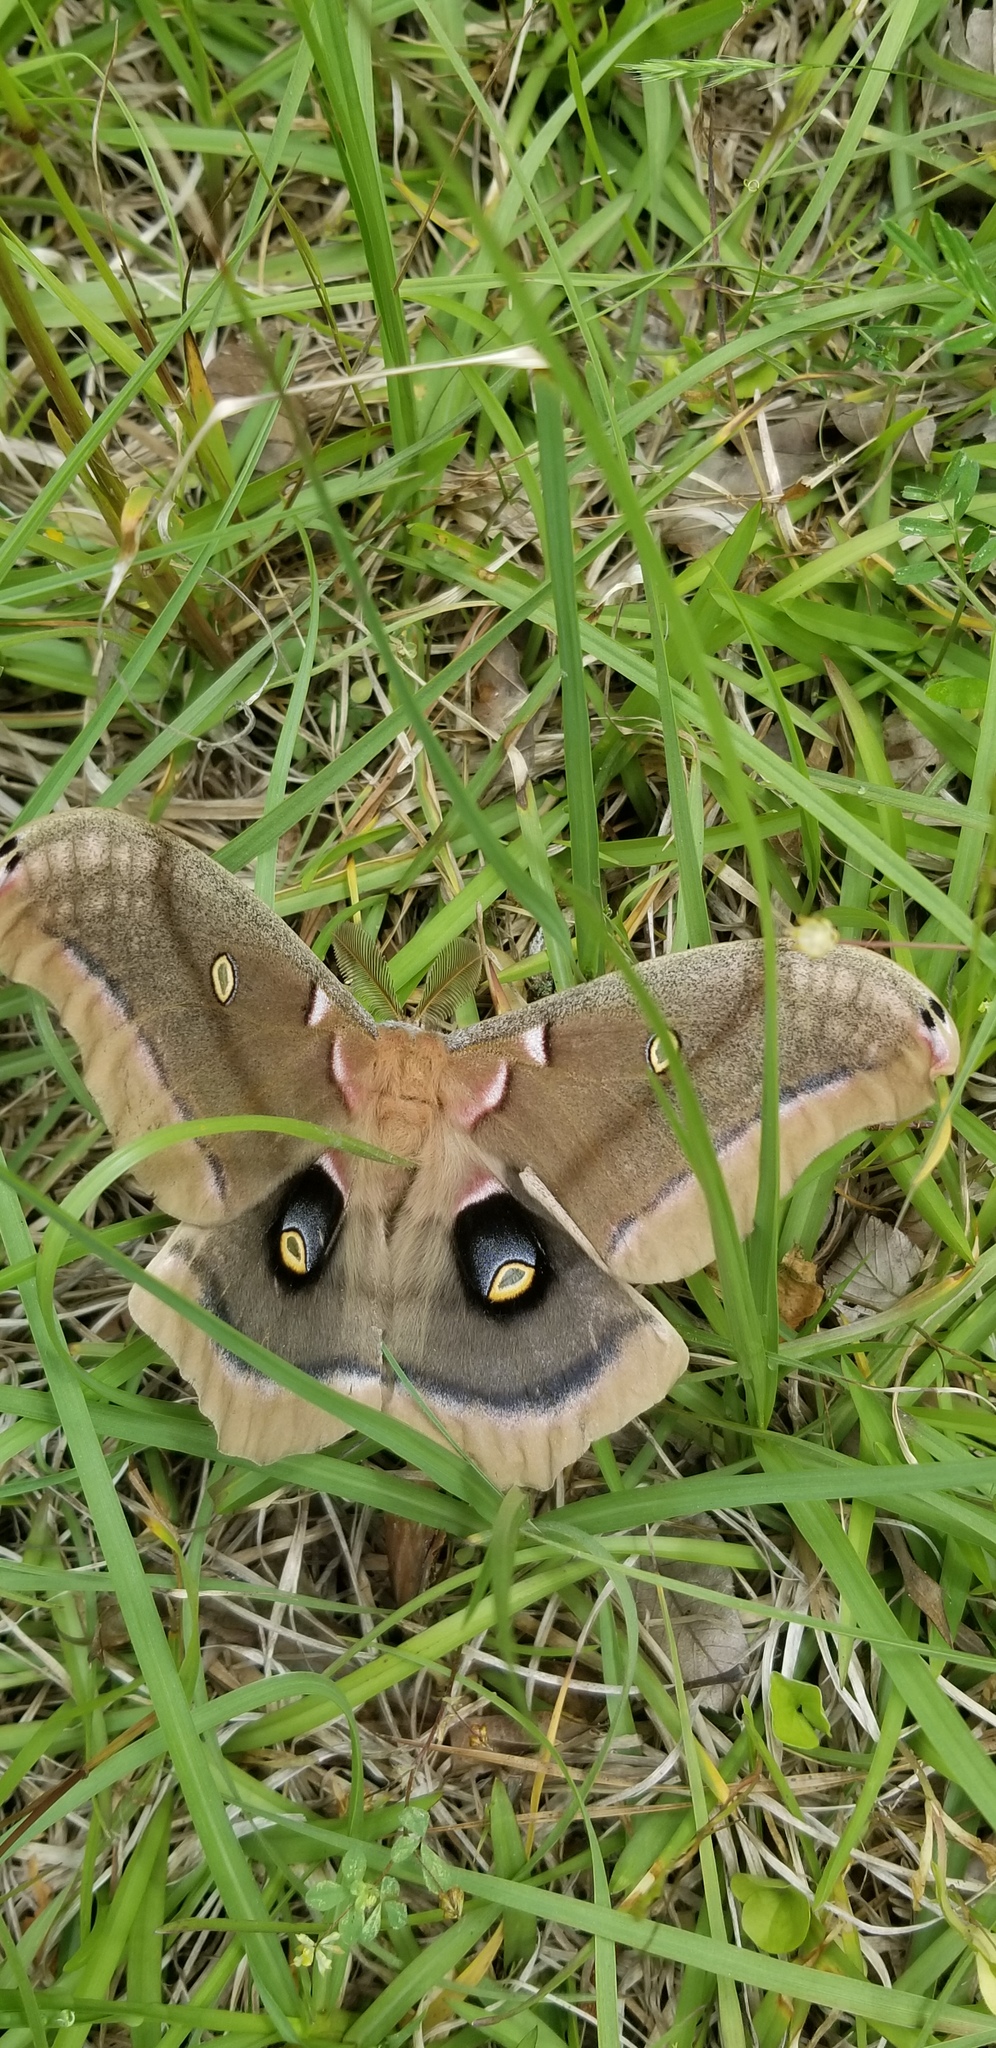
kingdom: Animalia
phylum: Arthropoda
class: Insecta
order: Lepidoptera
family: Saturniidae
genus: Antheraea
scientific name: Antheraea polyphemus
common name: Polyphemus moth
